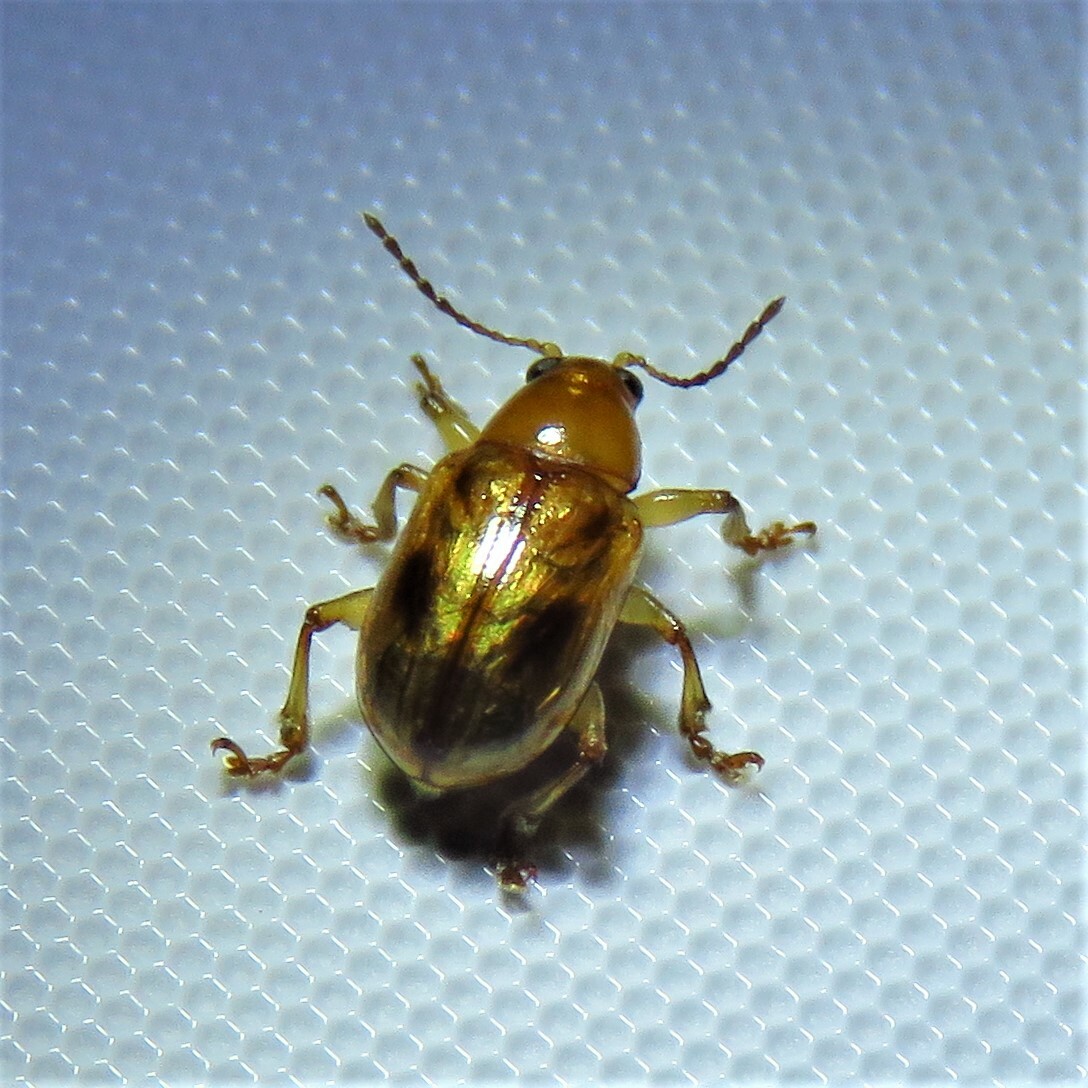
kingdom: Animalia
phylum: Arthropoda
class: Insecta
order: Coleoptera
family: Chrysomelidae
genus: Paria
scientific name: Paria quadriguttata
